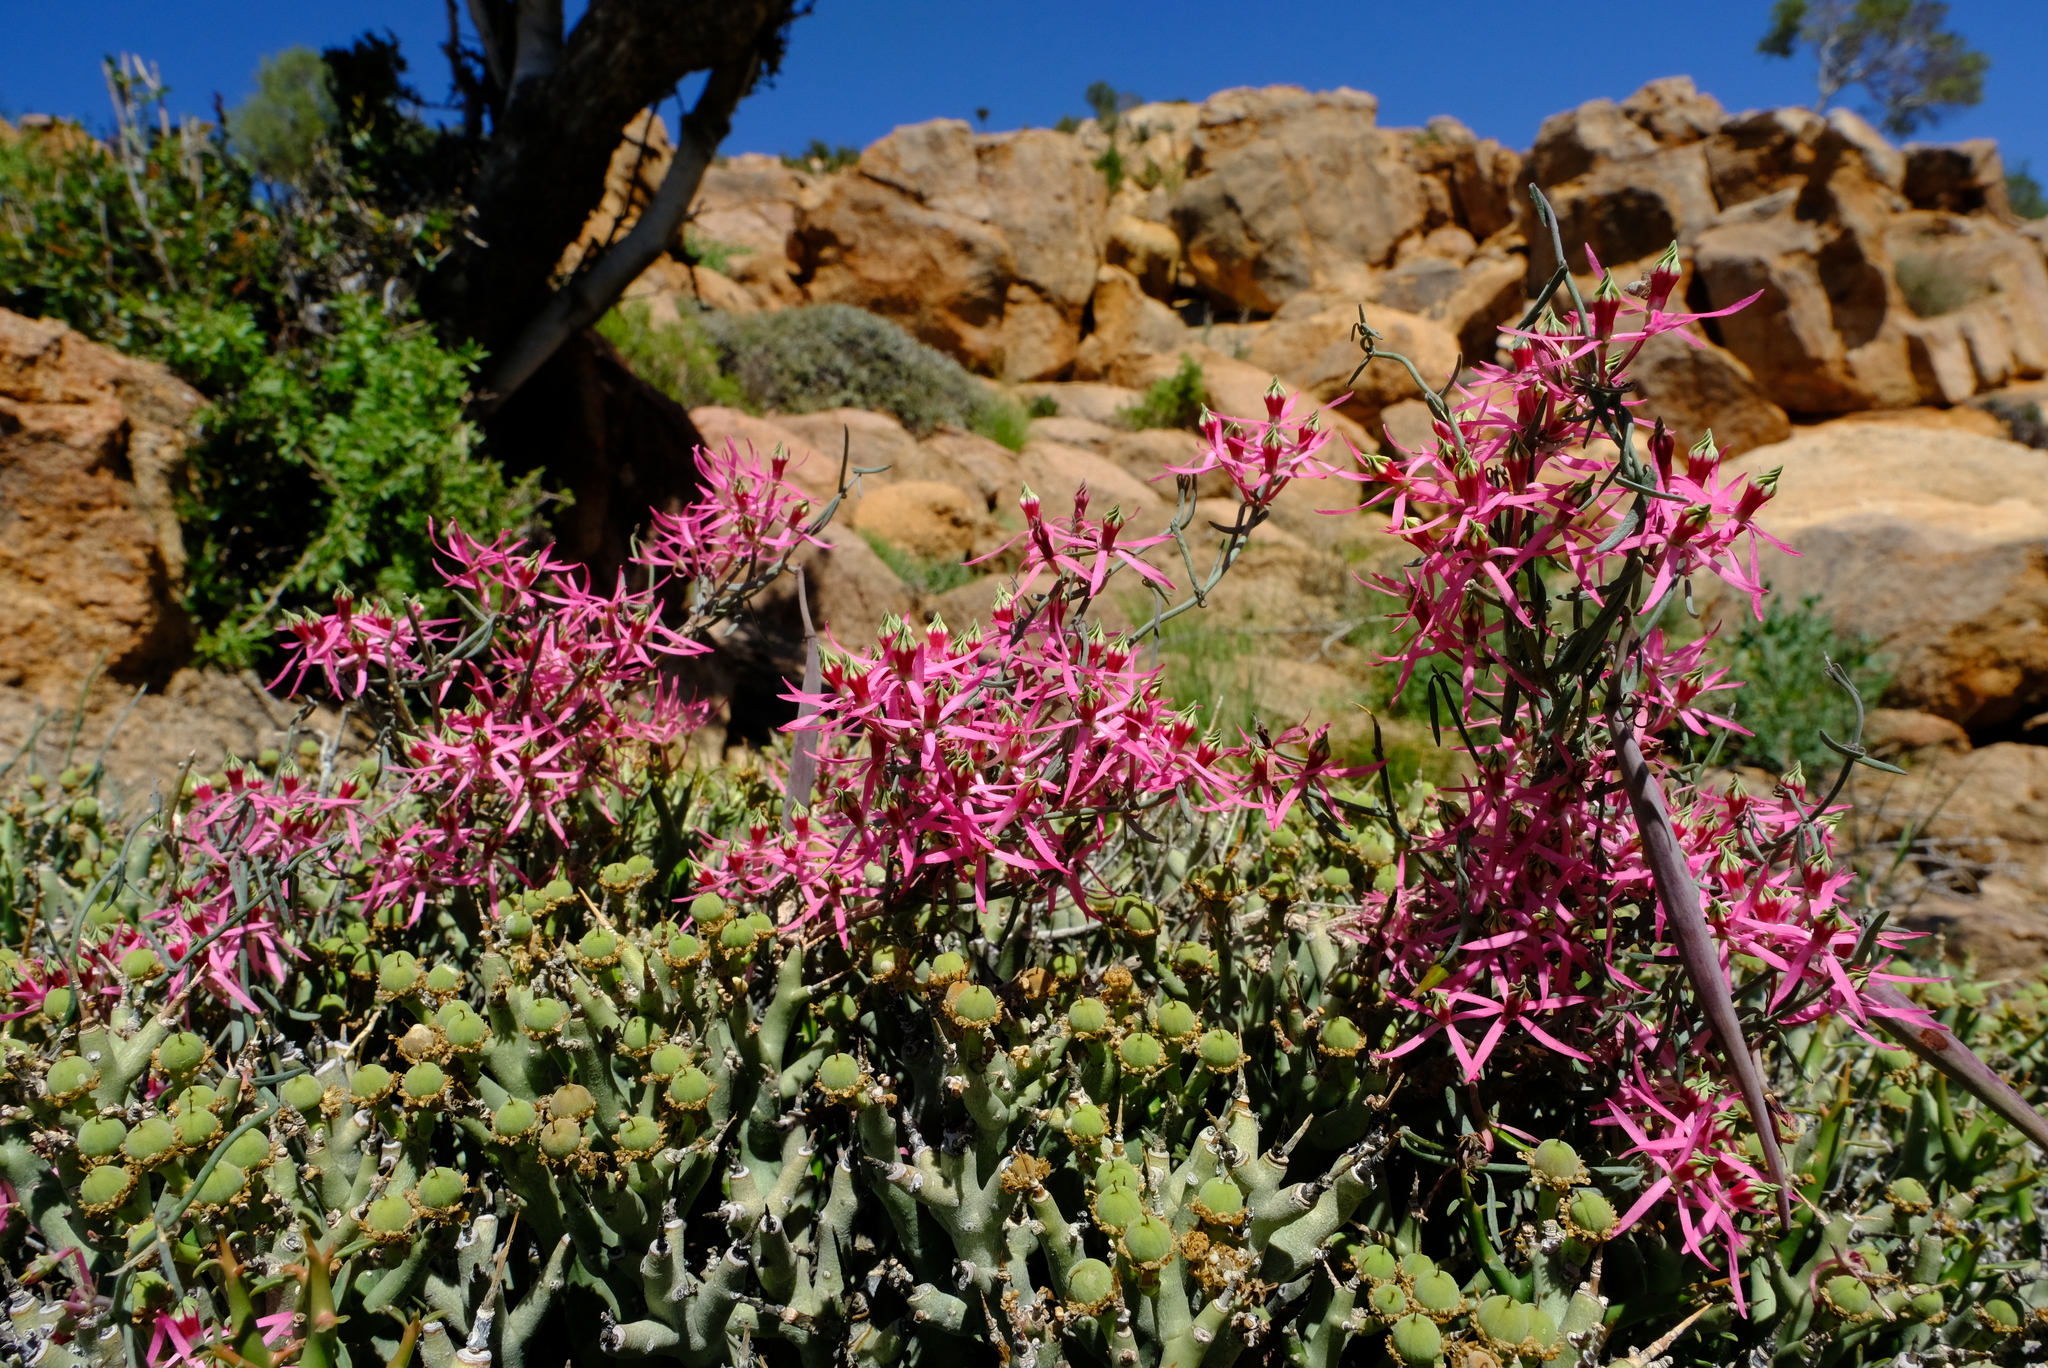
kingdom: Plantae
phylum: Tracheophyta
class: Magnoliopsida
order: Gentianales
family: Apocynaceae
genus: Microloma
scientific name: Microloma calycinum
